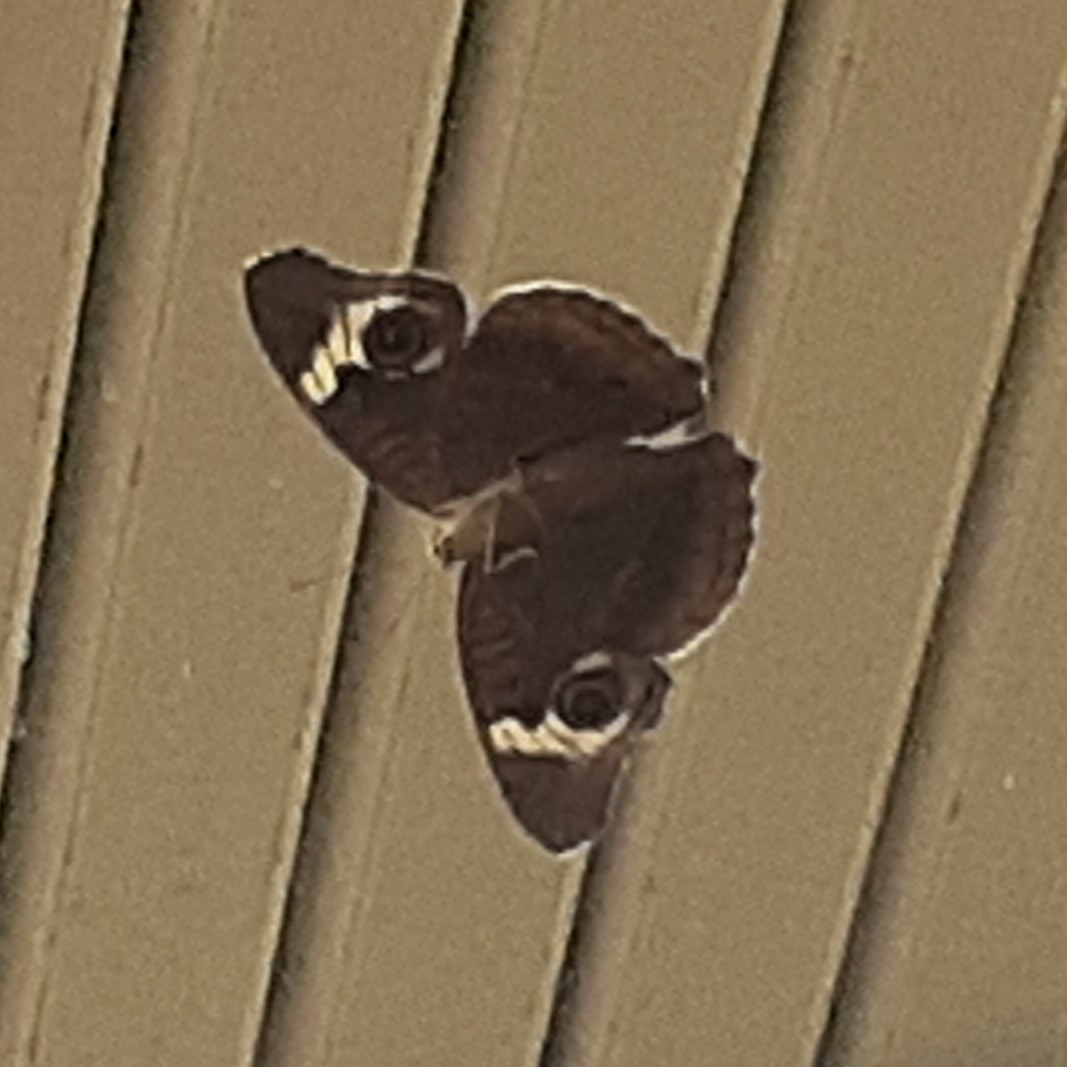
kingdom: Animalia
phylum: Arthropoda
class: Insecta
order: Lepidoptera
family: Nymphalidae
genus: Junonia
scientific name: Junonia coenia
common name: Common buckeye
